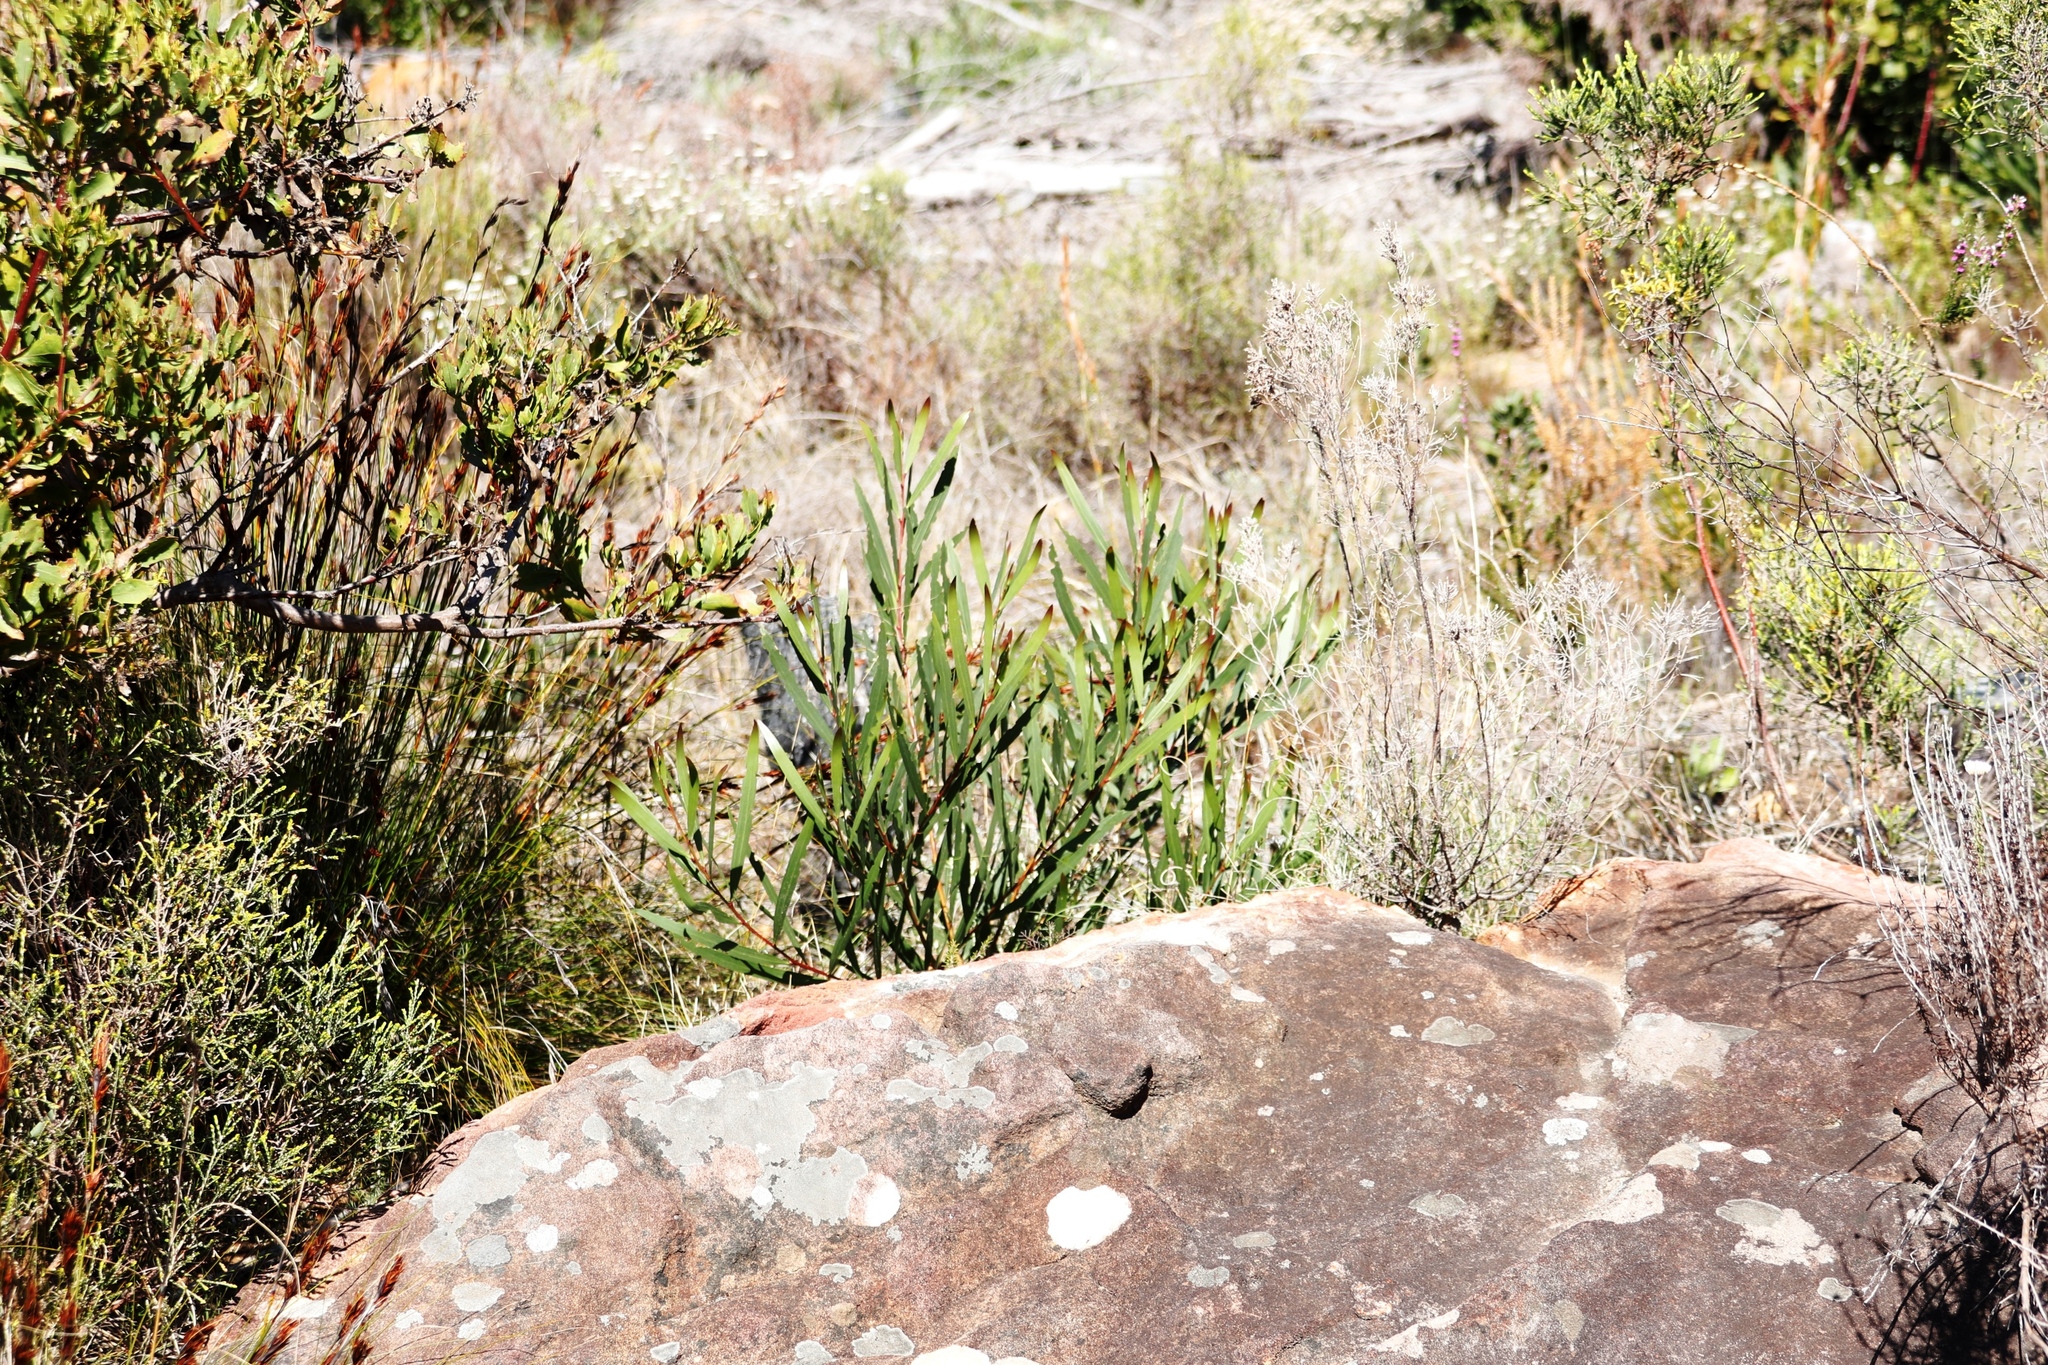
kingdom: Plantae
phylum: Tracheophyta
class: Magnoliopsida
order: Fabales
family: Fabaceae
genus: Acacia
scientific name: Acacia longifolia
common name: Sydney golden wattle
